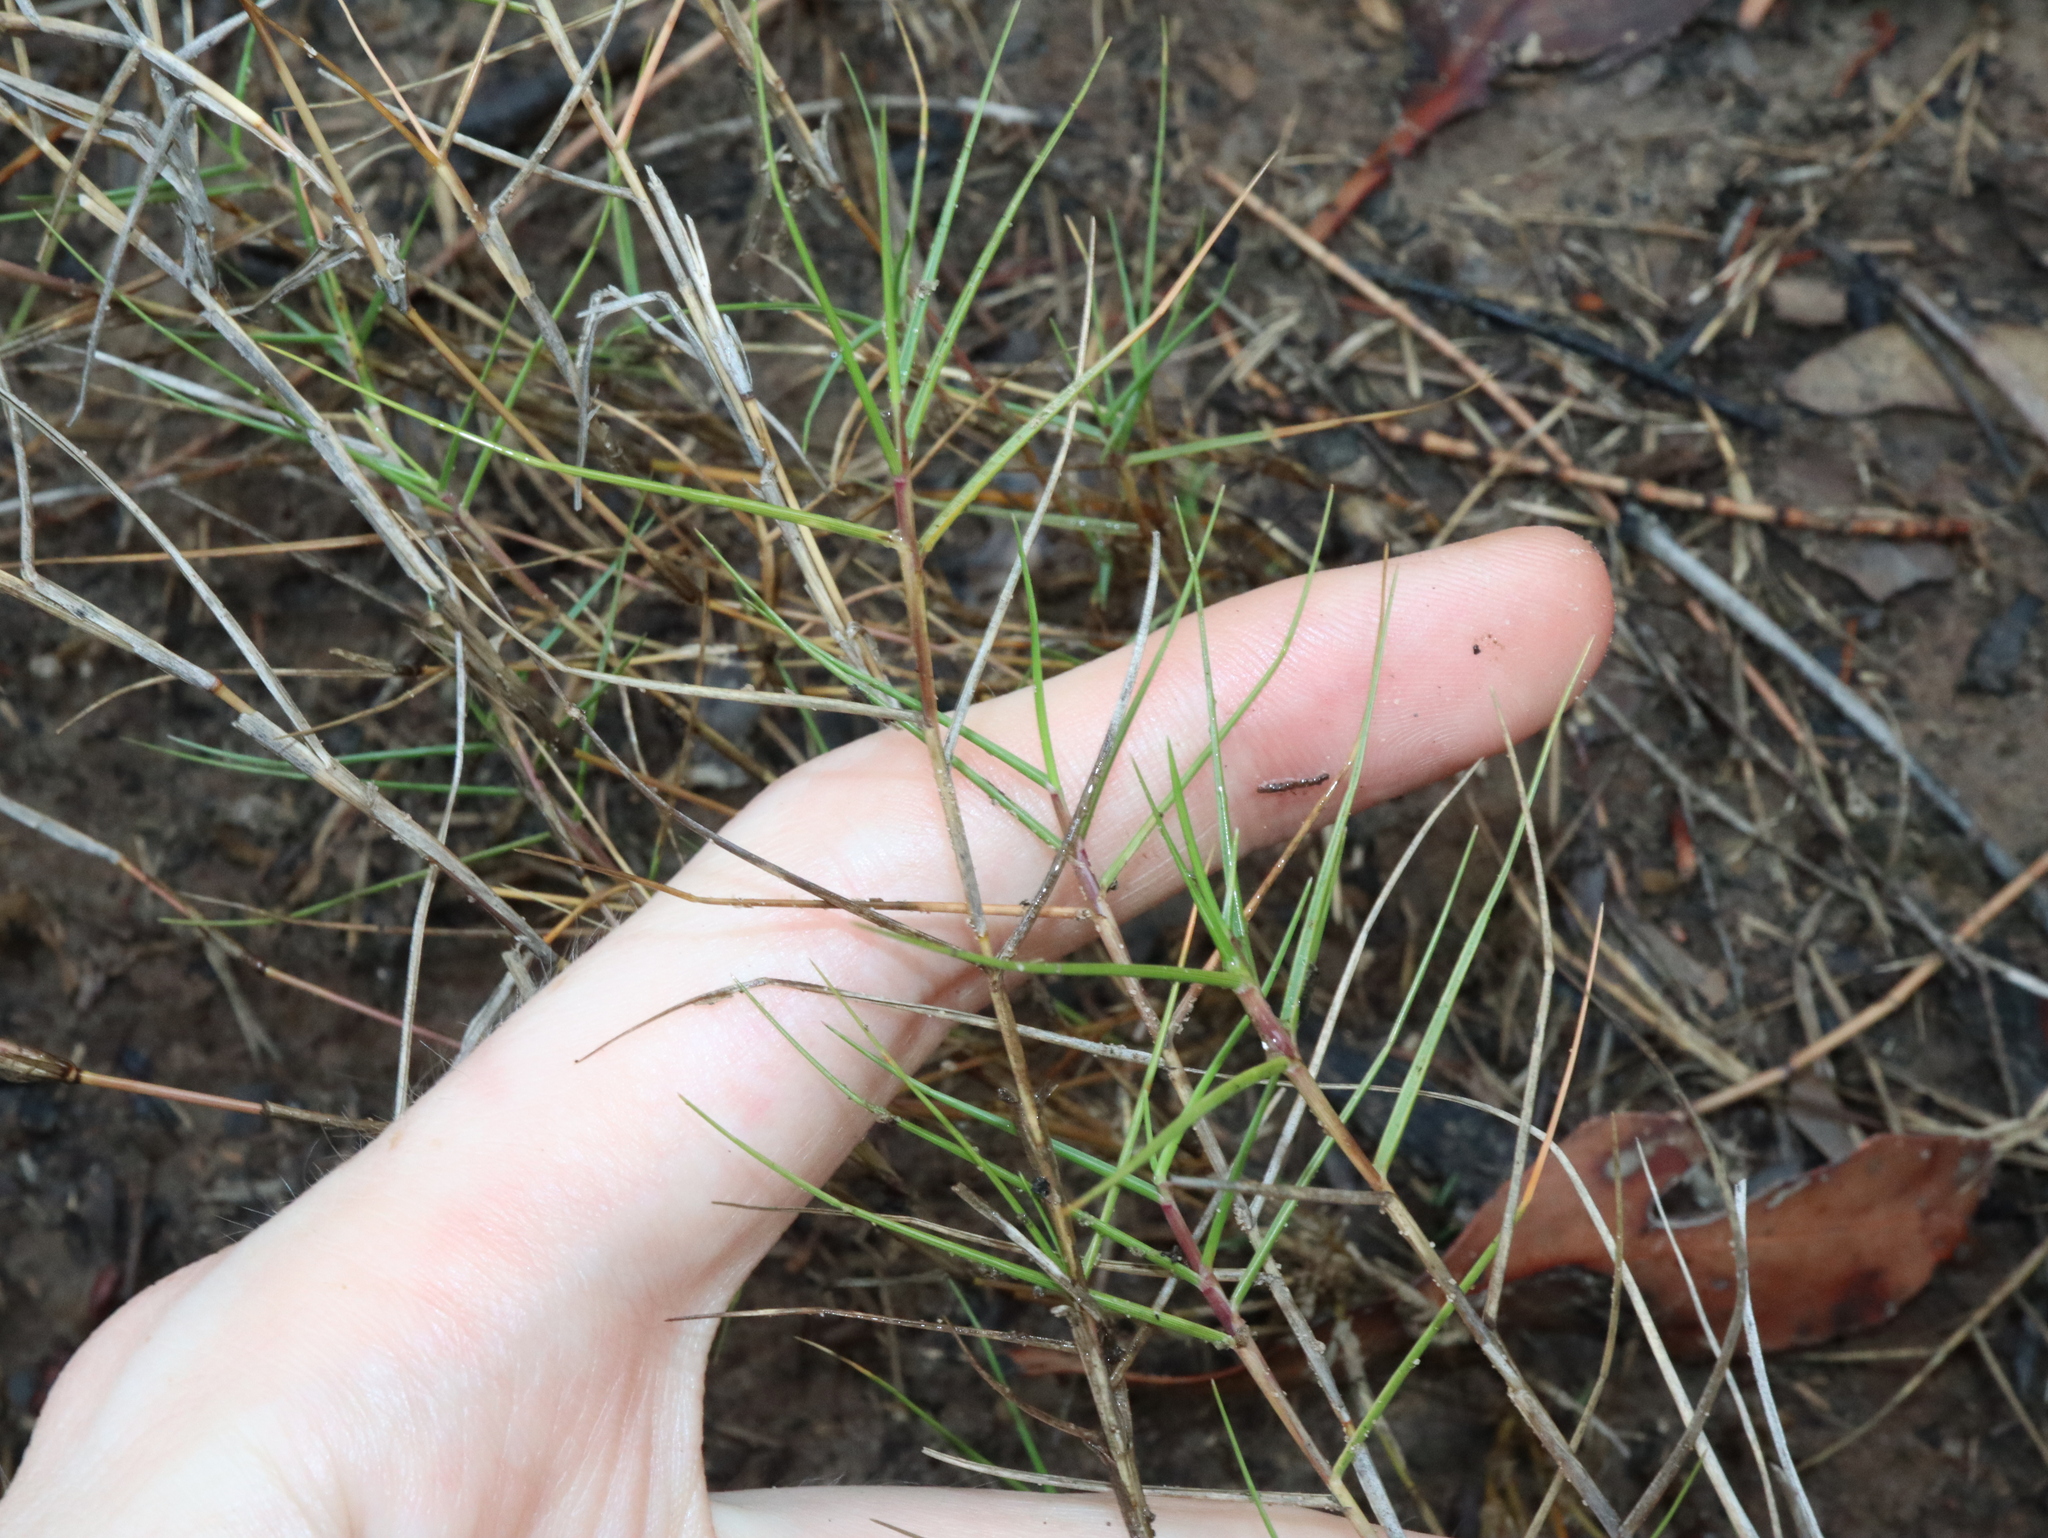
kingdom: Plantae
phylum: Tracheophyta
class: Liliopsida
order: Poales
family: Poaceae
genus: Sporobolus
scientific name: Sporobolus virginicus
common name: Beach dropseed
